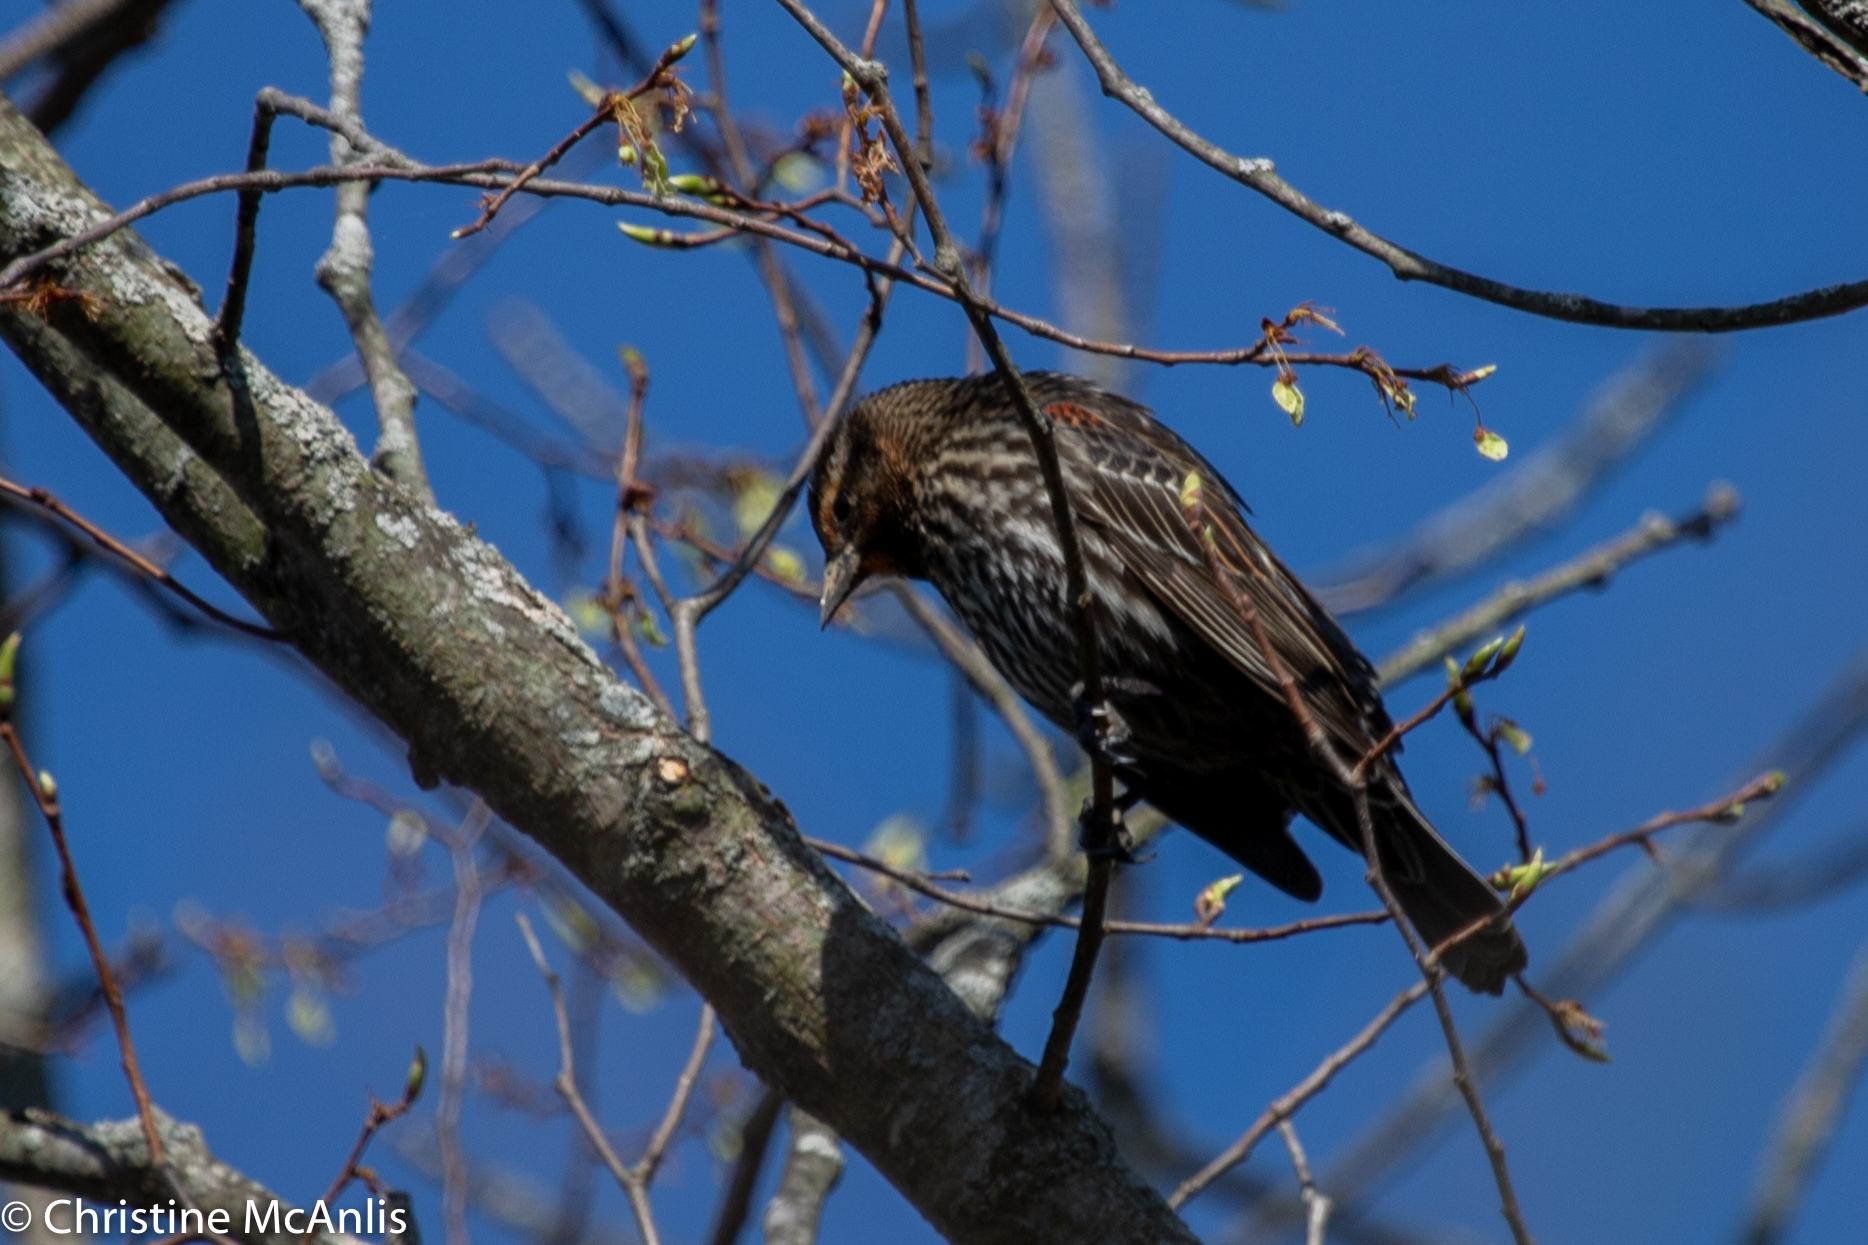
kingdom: Animalia
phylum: Chordata
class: Aves
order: Passeriformes
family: Icteridae
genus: Agelaius
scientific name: Agelaius phoeniceus
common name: Red-winged blackbird
